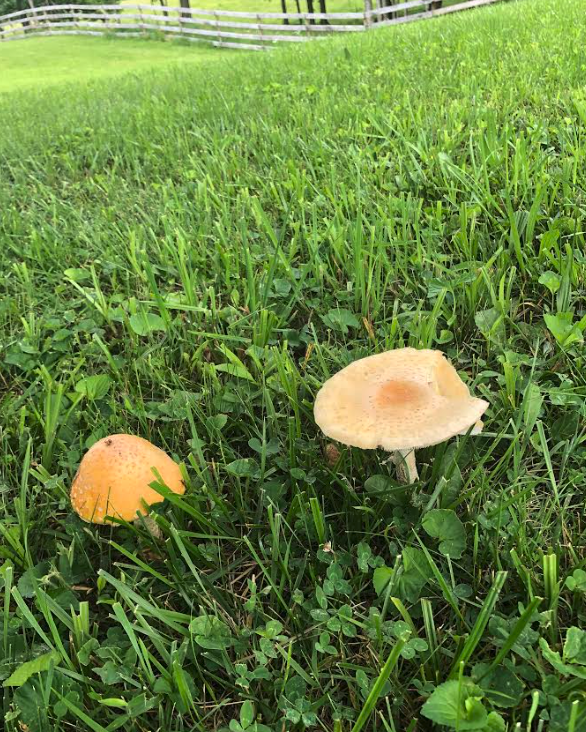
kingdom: Fungi
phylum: Basidiomycota
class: Agaricomycetes
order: Agaricales
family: Amanitaceae
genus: Amanita
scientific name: Amanita muscaria
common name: Fly agaric
